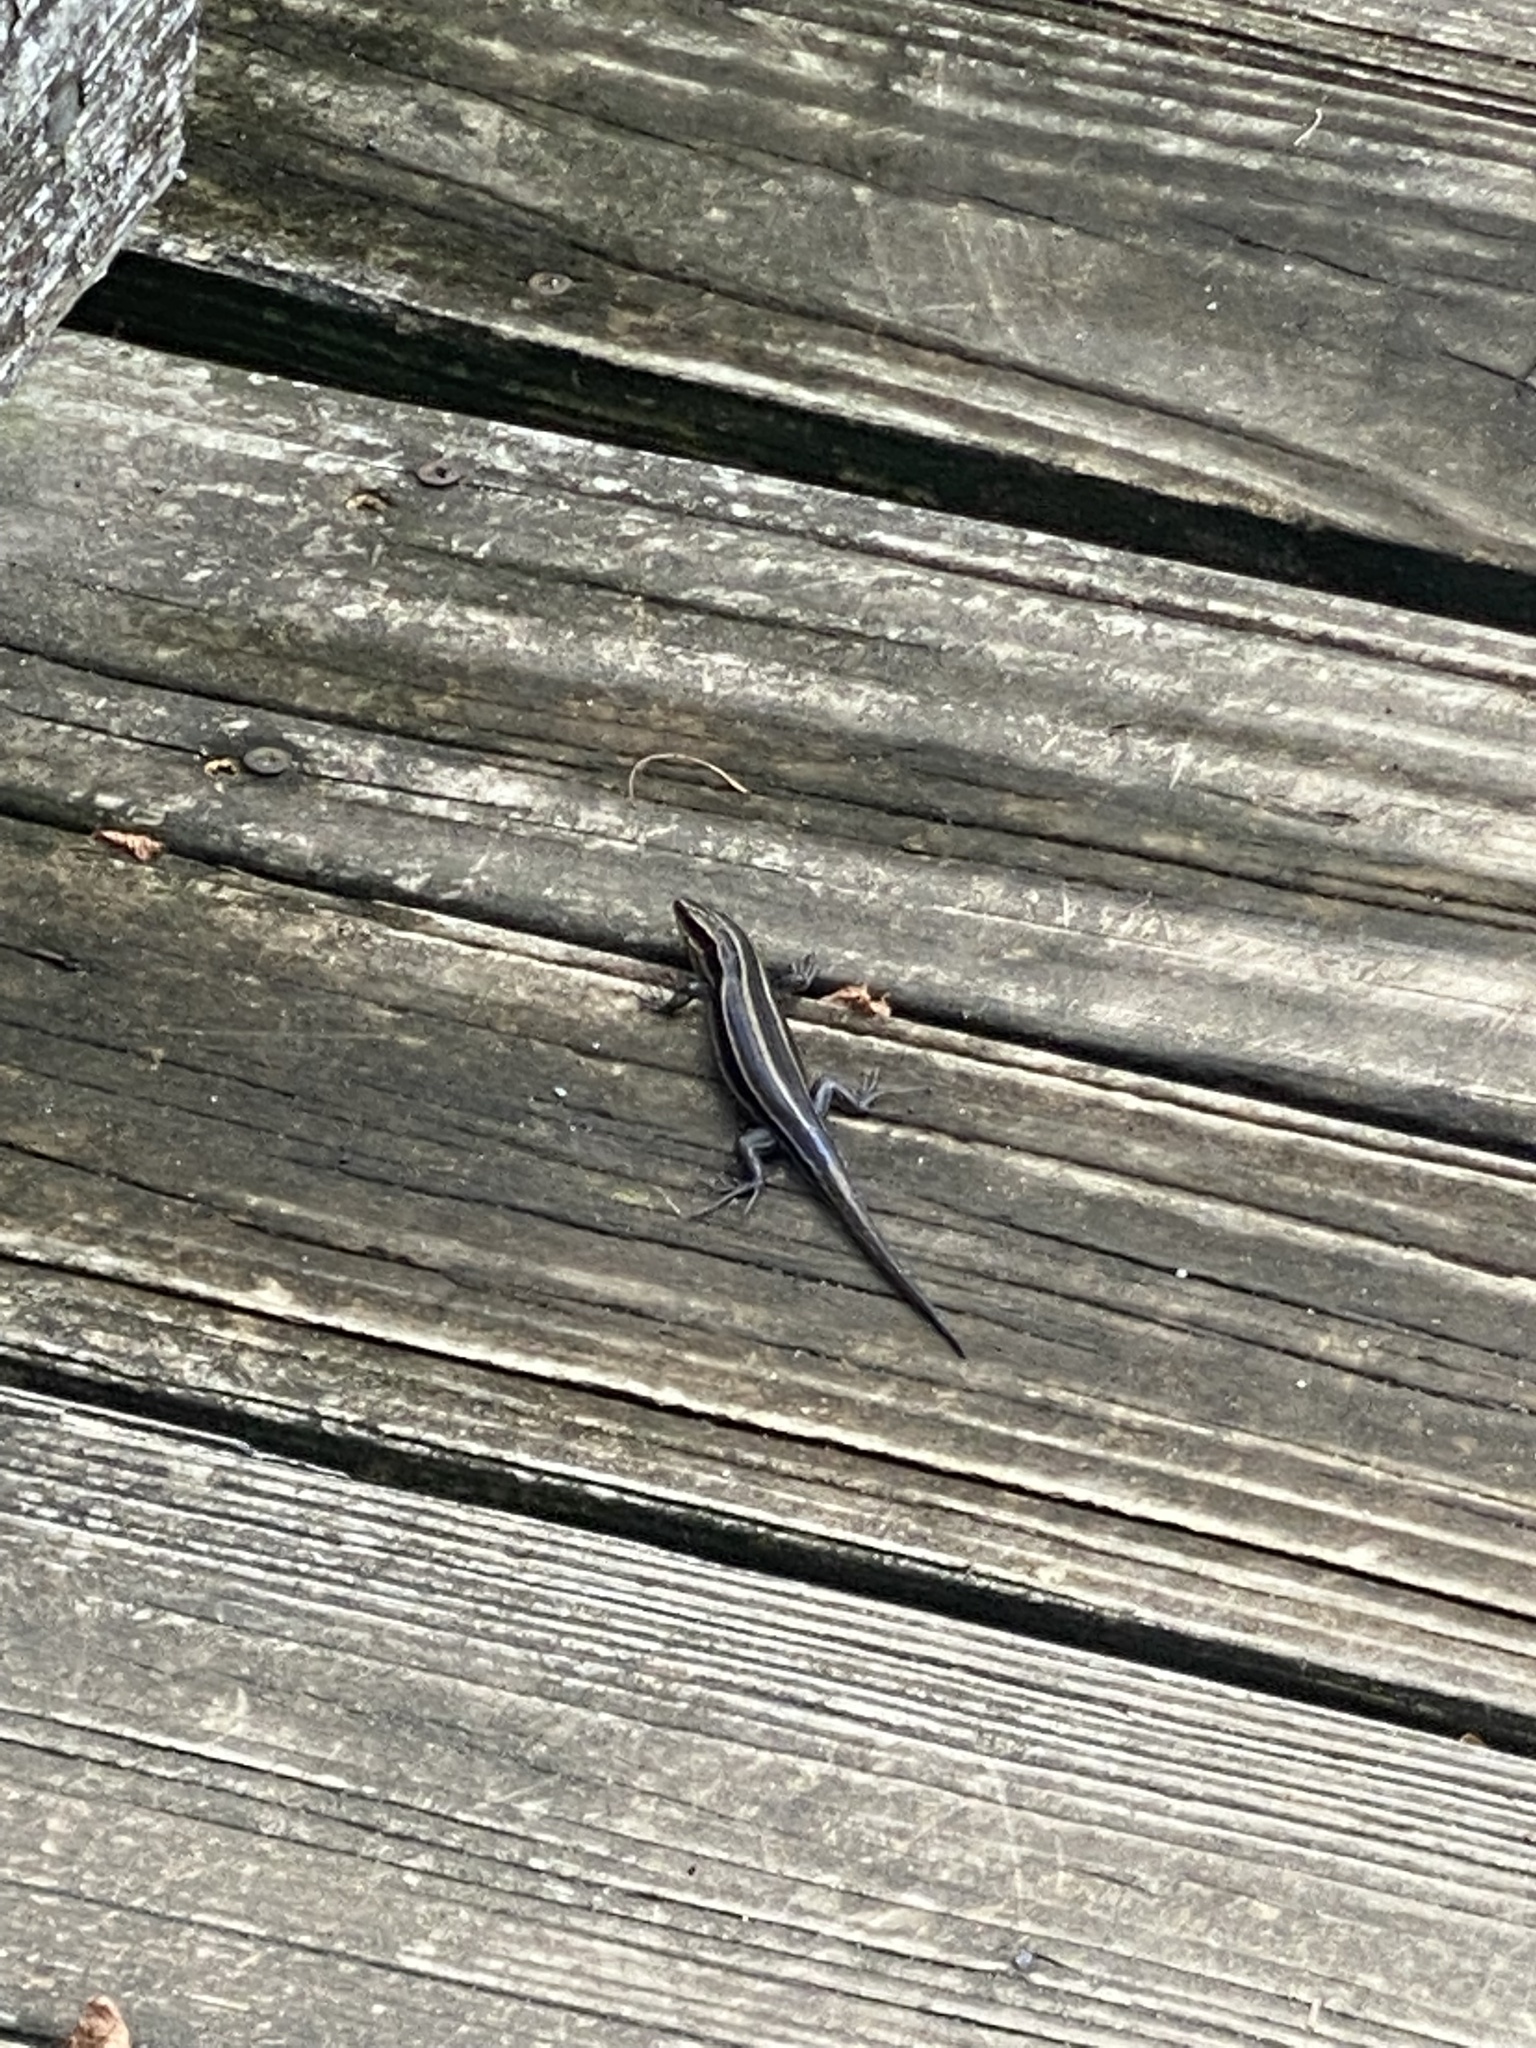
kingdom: Animalia
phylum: Chordata
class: Squamata
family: Scincidae
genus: Plestiodon
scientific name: Plestiodon fasciatus
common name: Five-lined skink
